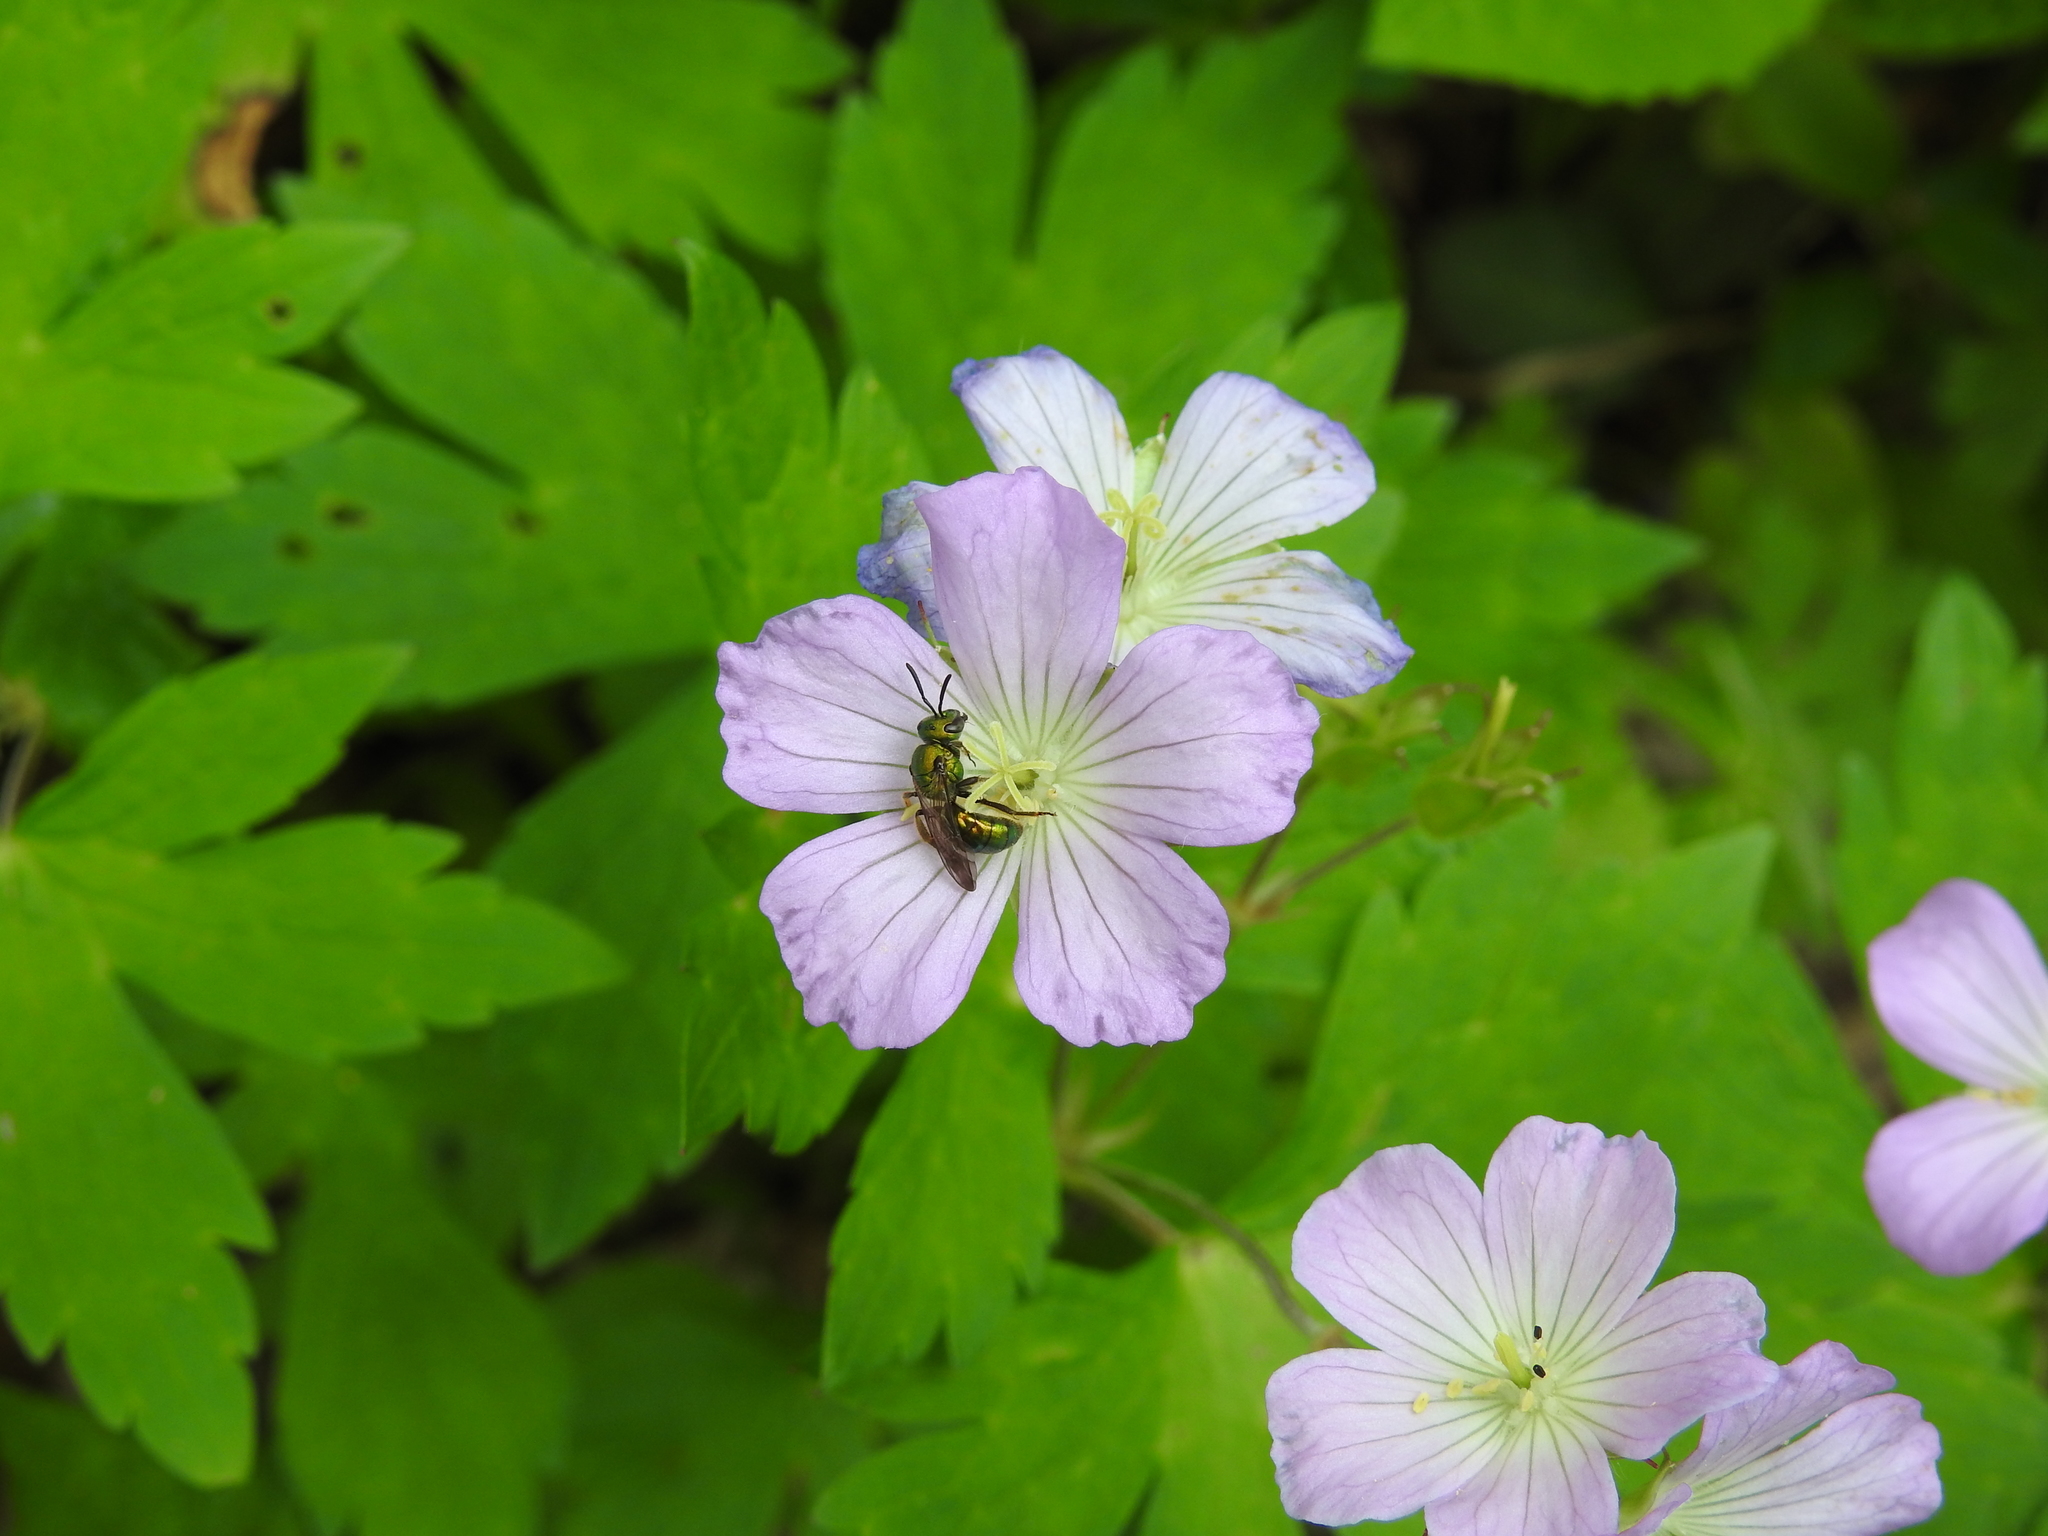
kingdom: Plantae
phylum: Tracheophyta
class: Magnoliopsida
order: Geraniales
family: Geraniaceae
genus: Geranium
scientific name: Geranium maculatum
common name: Spotted geranium
